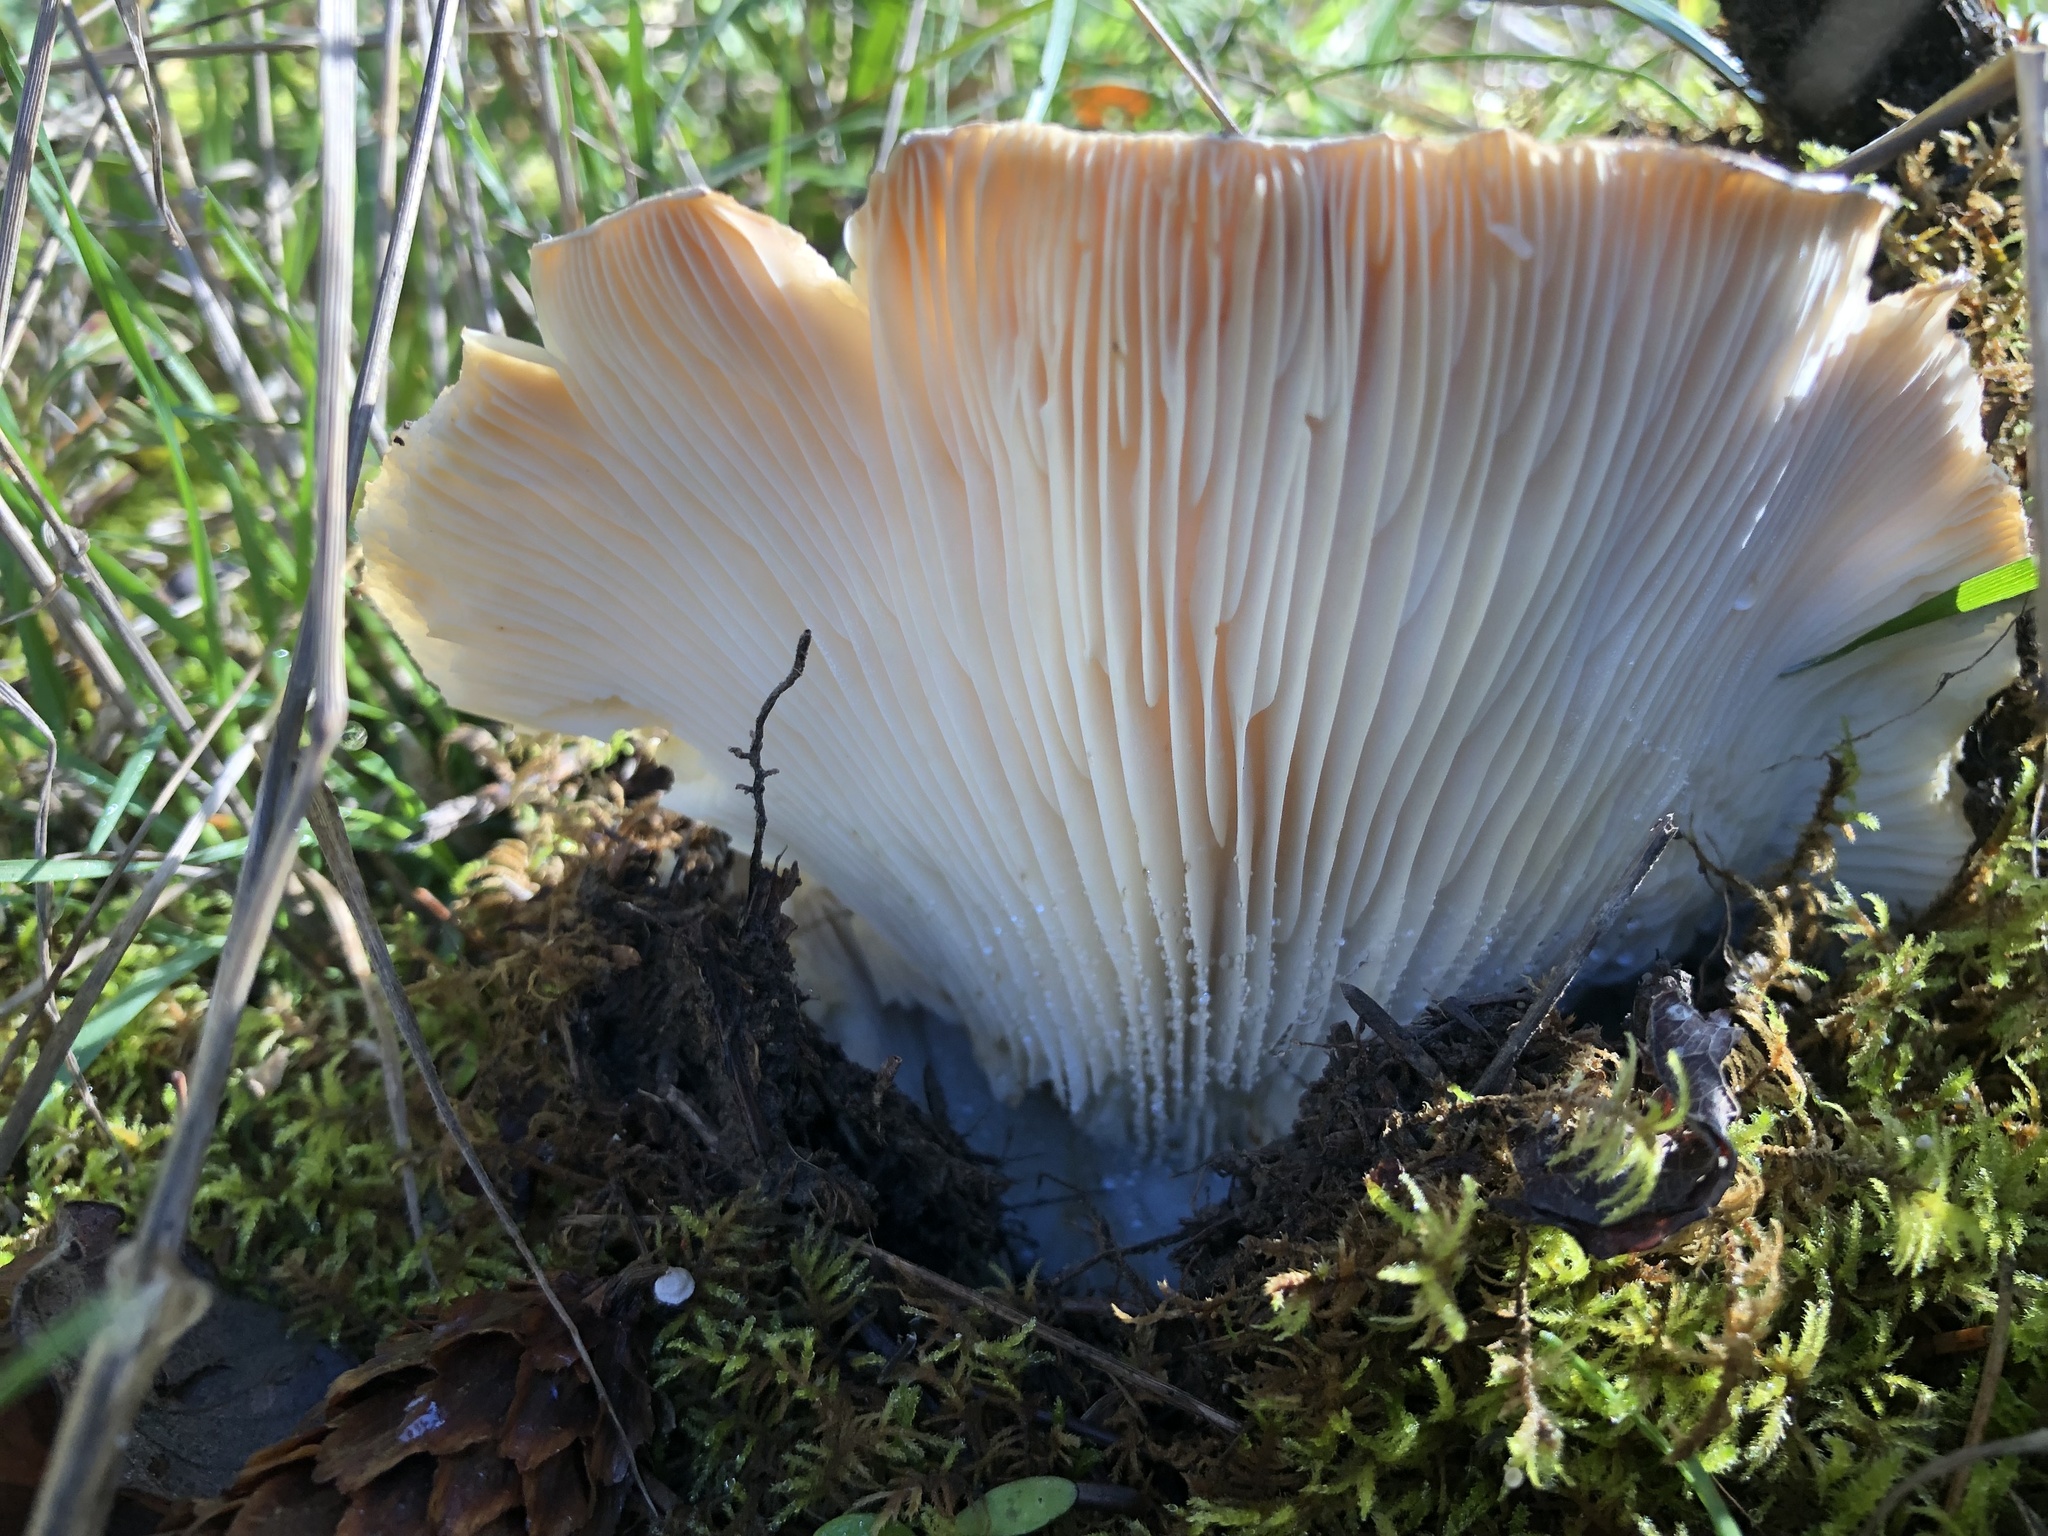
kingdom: Fungi
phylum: Basidiomycota
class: Agaricomycetes
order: Russulales
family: Russulaceae
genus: Russula
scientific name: Russula brevipes
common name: Short-stemmed russula
